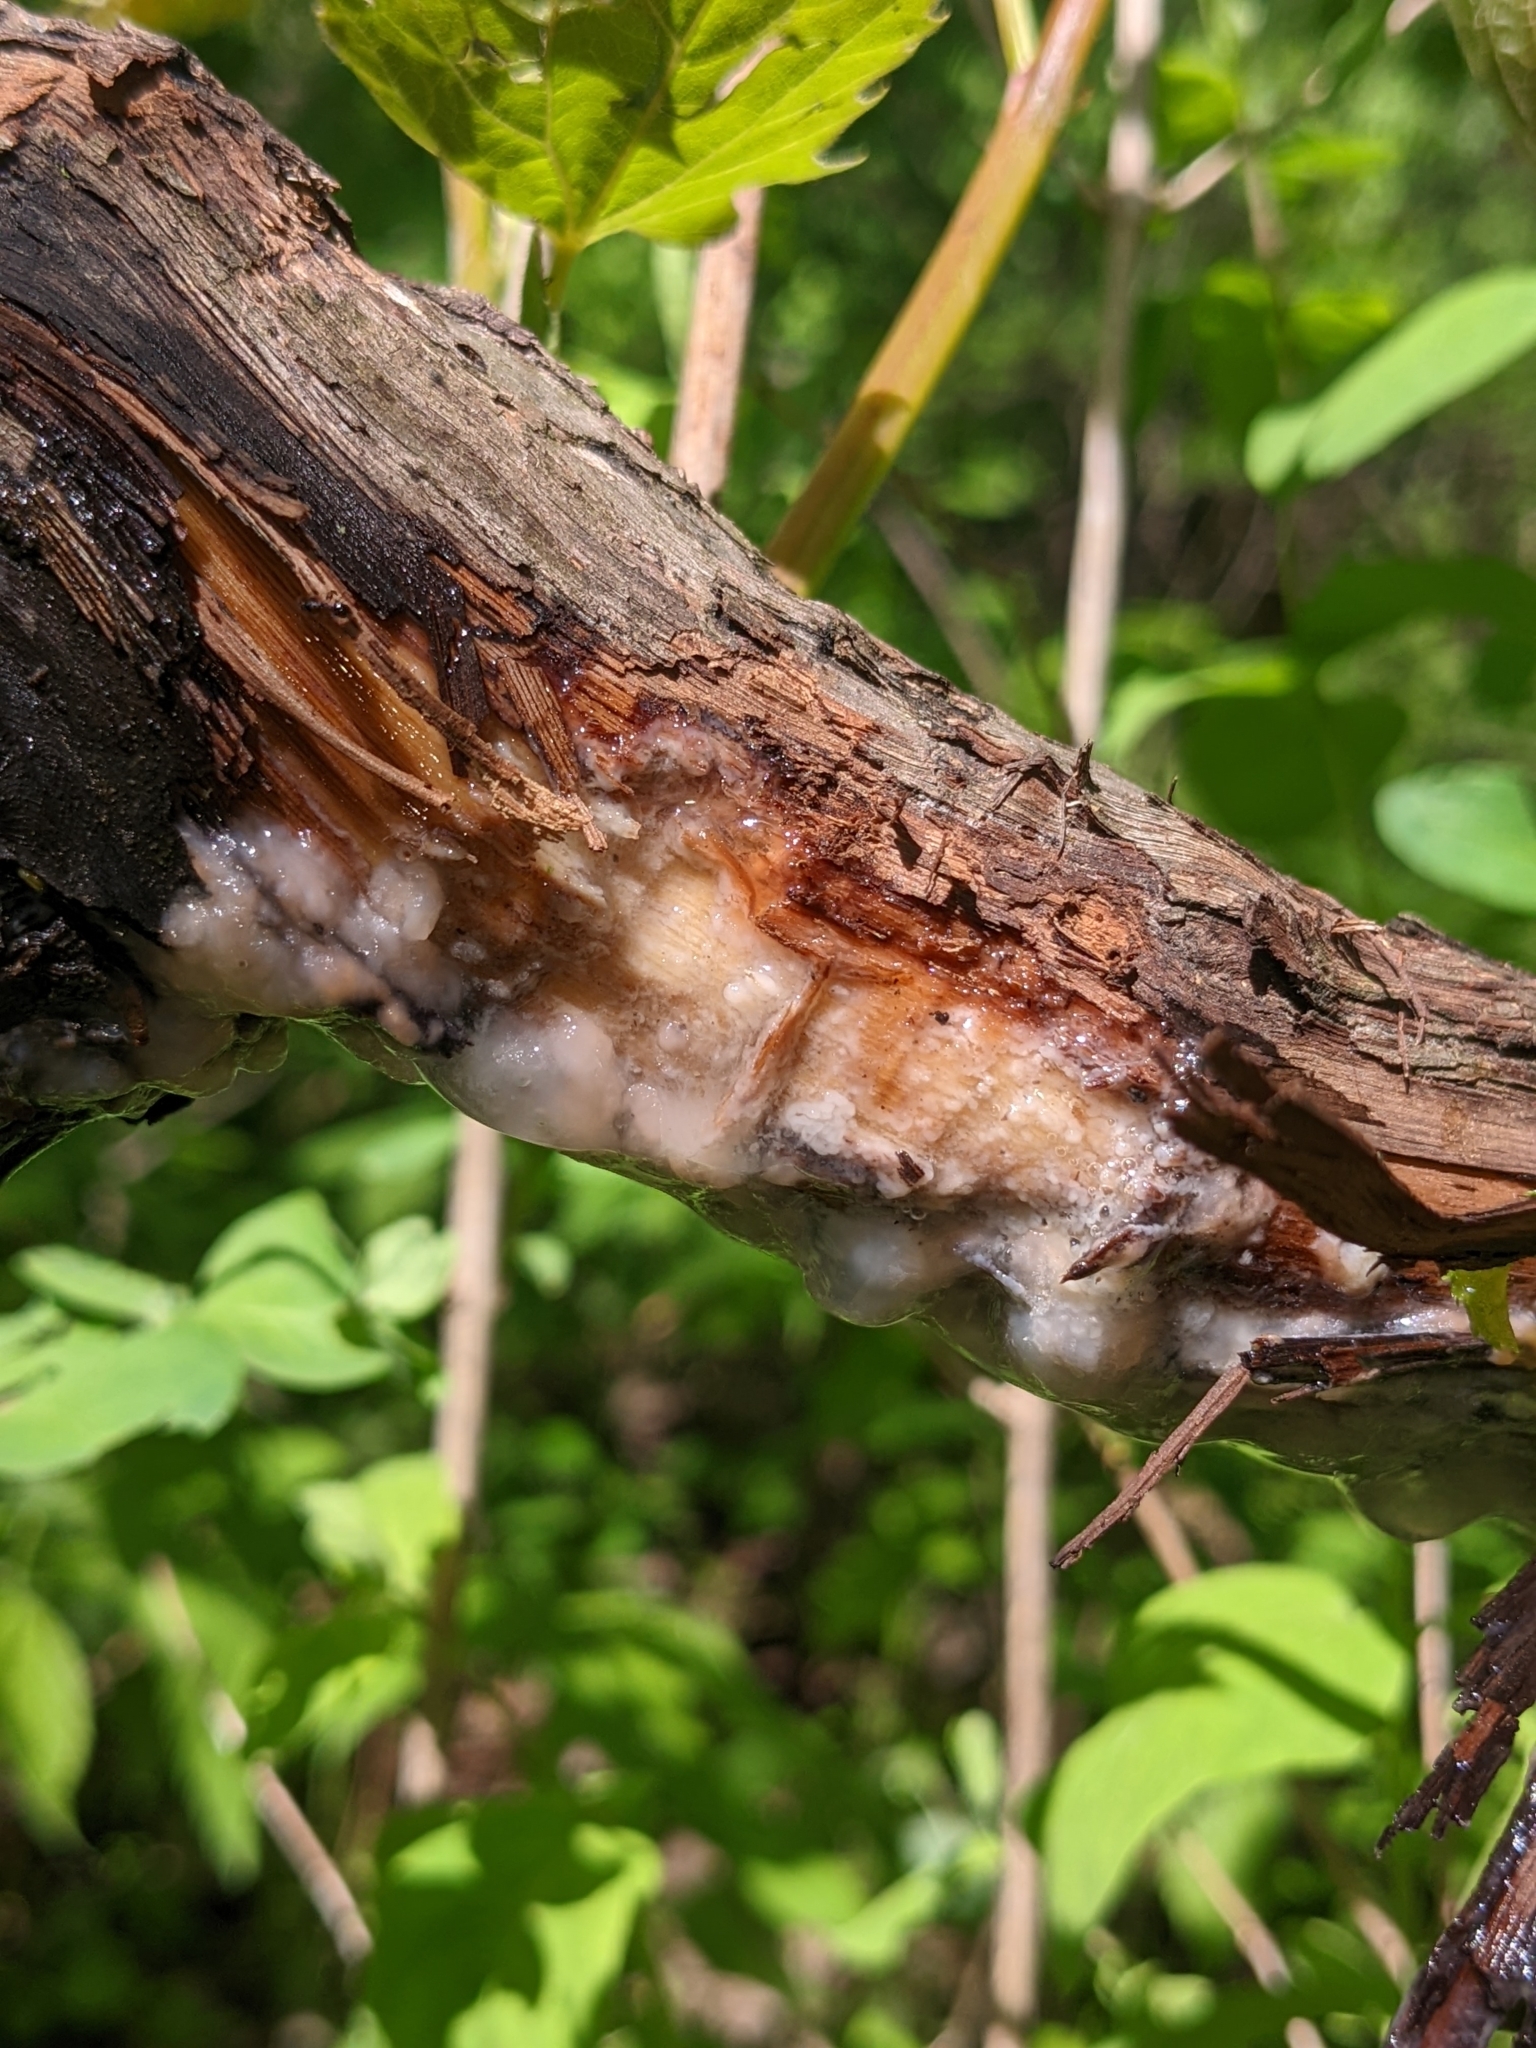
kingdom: Fungi
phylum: Ascomycota
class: Sordariomycetes
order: Hypocreales
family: Nectriaceae
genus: Fusicolla
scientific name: Fusicolla merismoides
